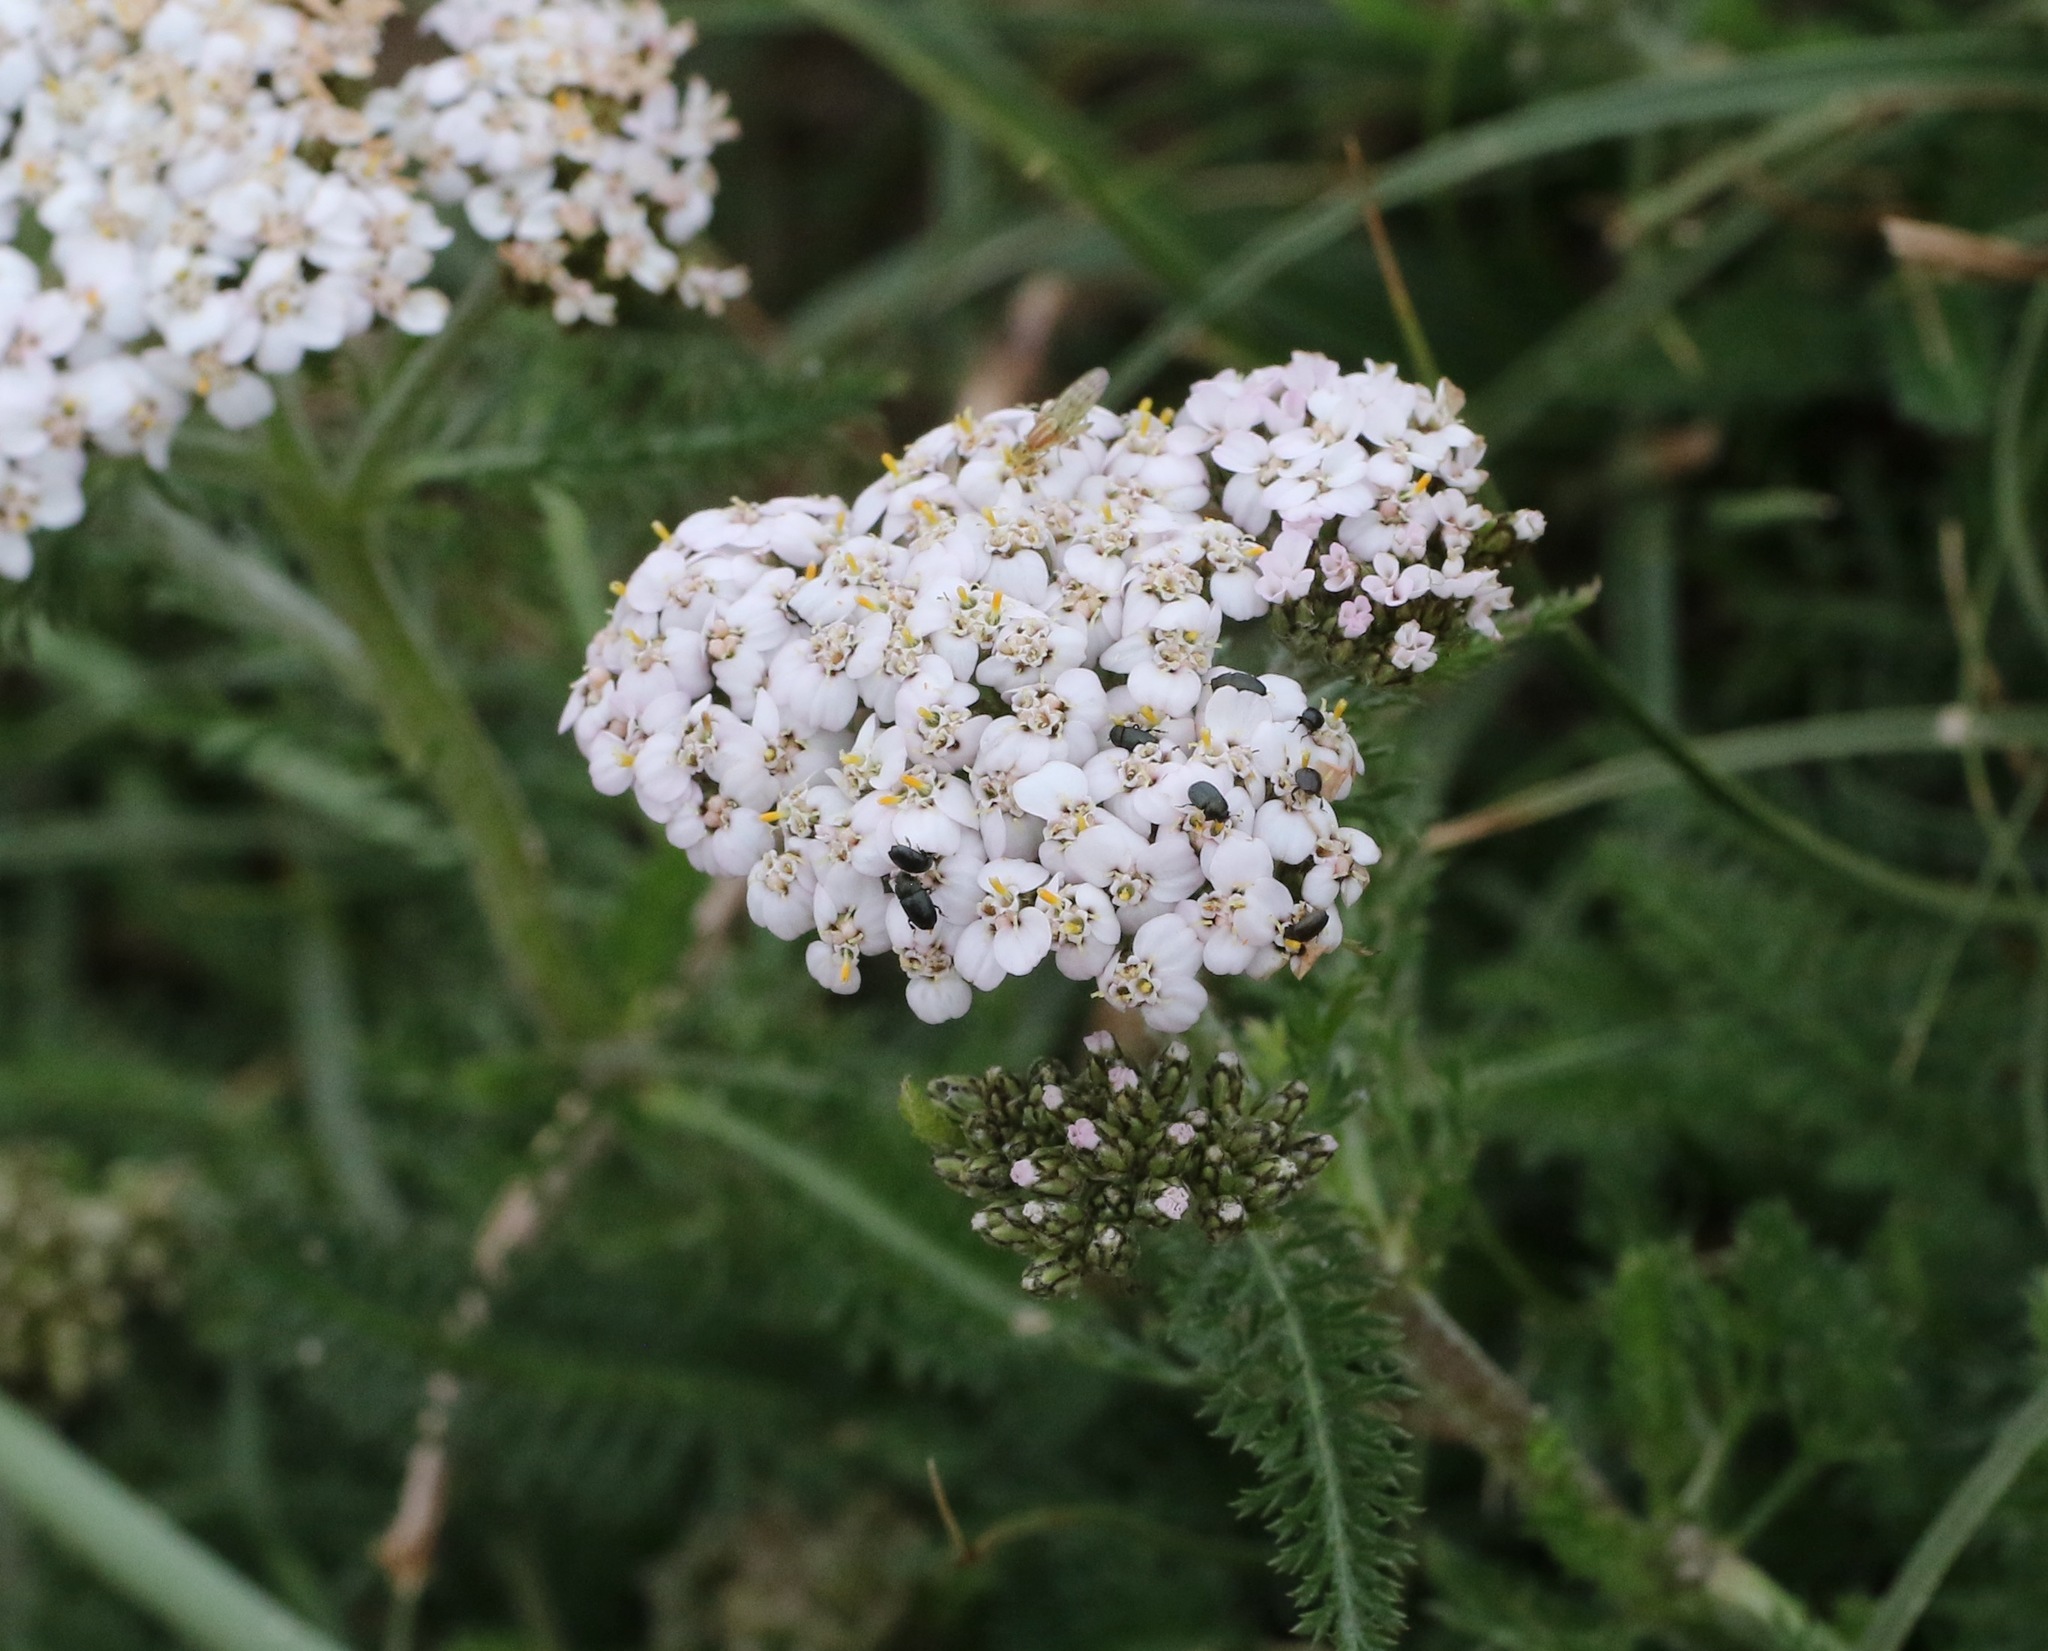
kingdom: Plantae
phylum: Tracheophyta
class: Magnoliopsida
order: Asterales
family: Asteraceae
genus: Achillea
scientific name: Achillea millefolium
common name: Yarrow
